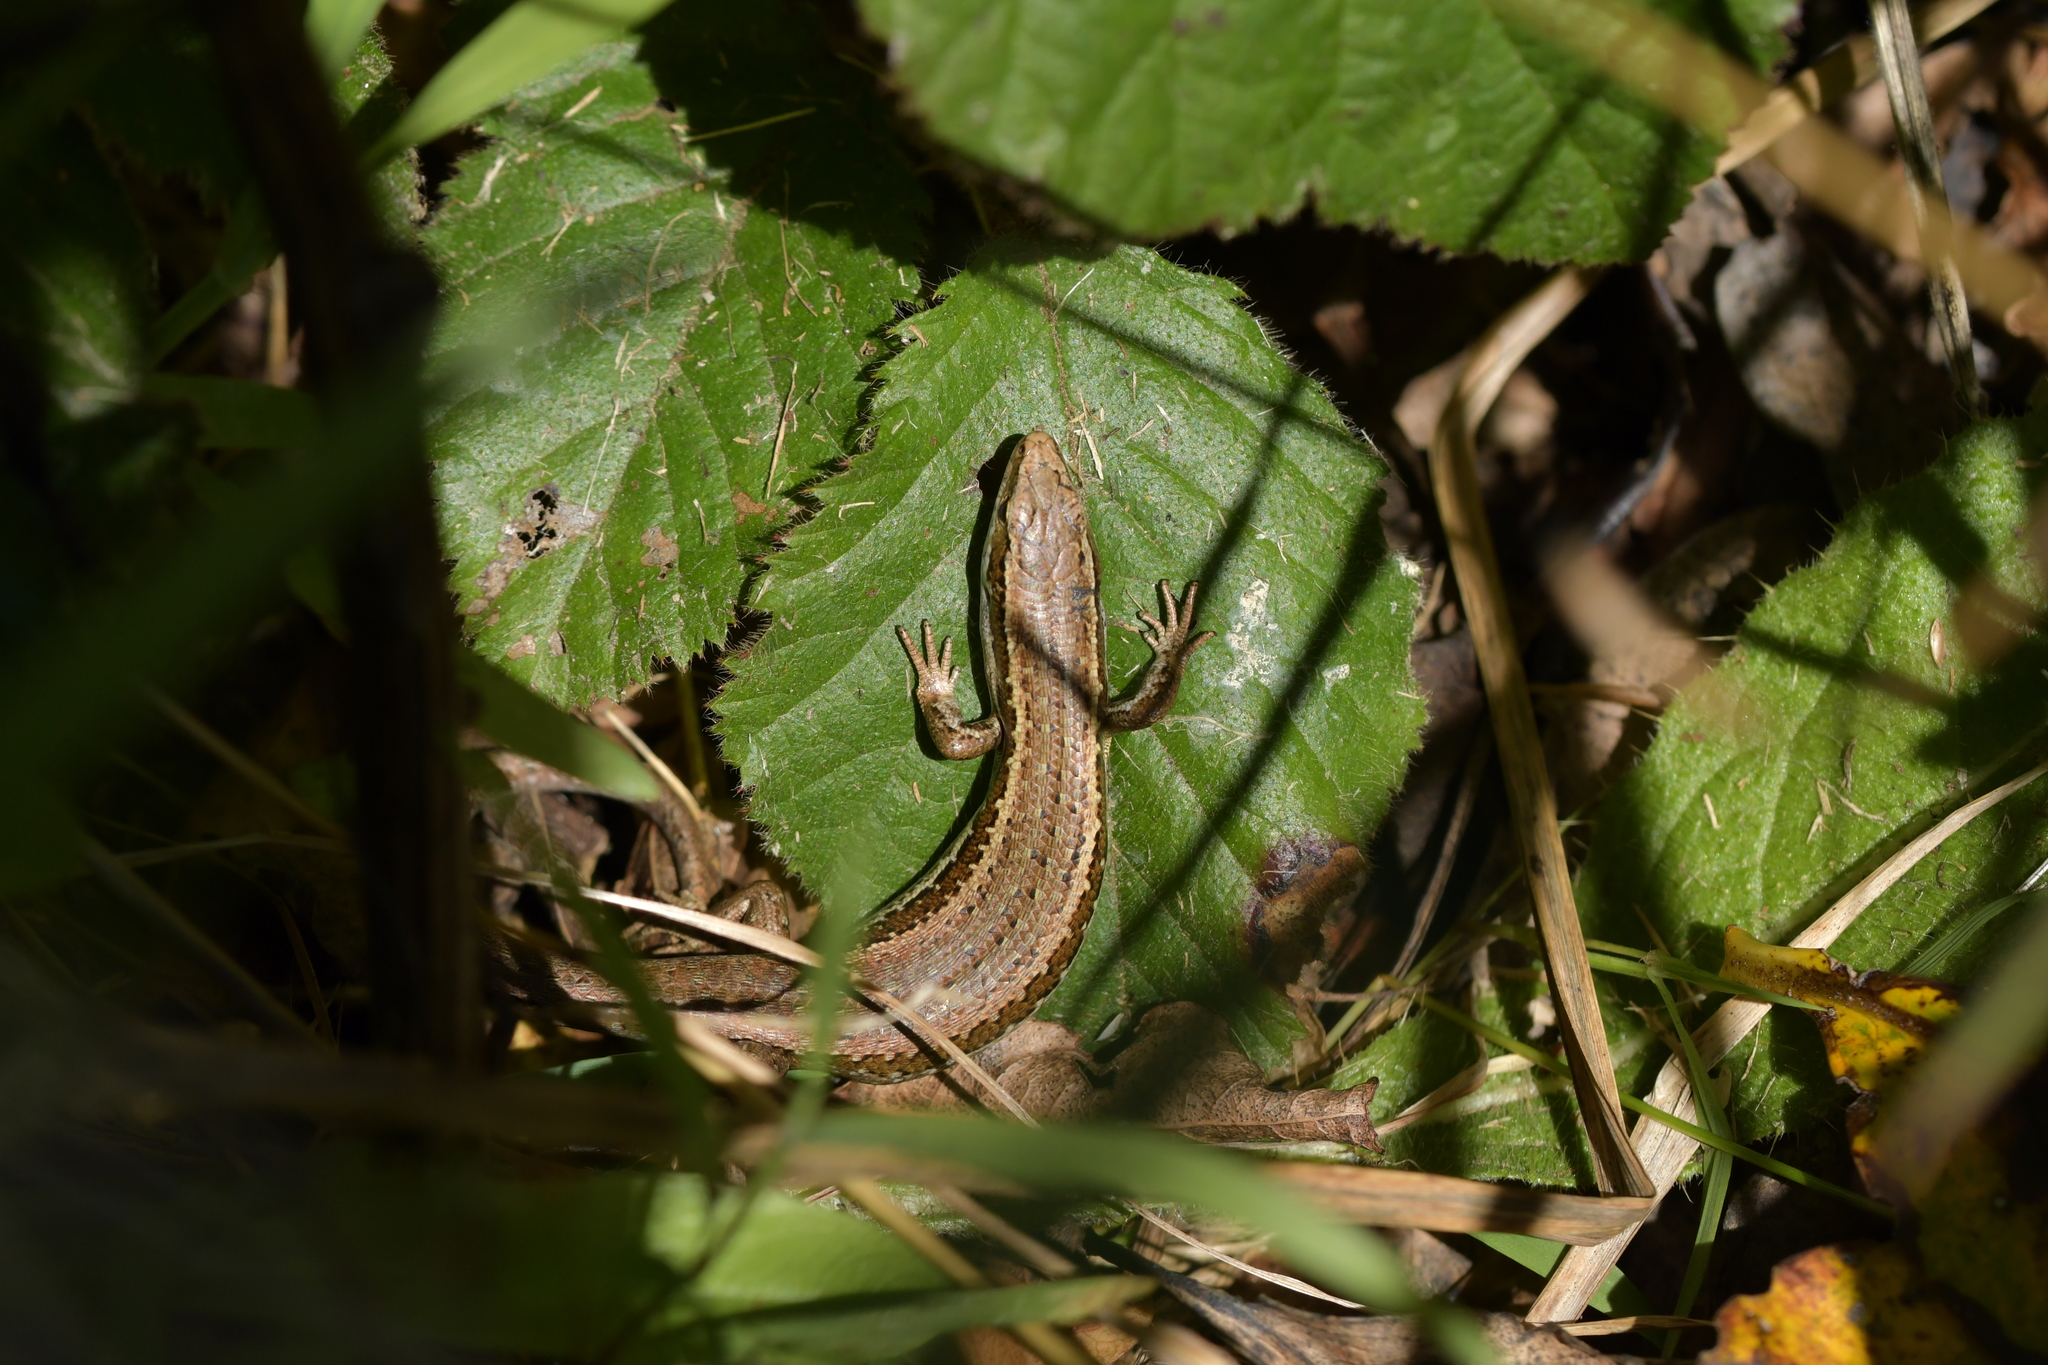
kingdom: Animalia
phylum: Chordata
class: Squamata
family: Scincidae
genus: Oligosoma
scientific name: Oligosoma polychroma
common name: Common new zealand skink
